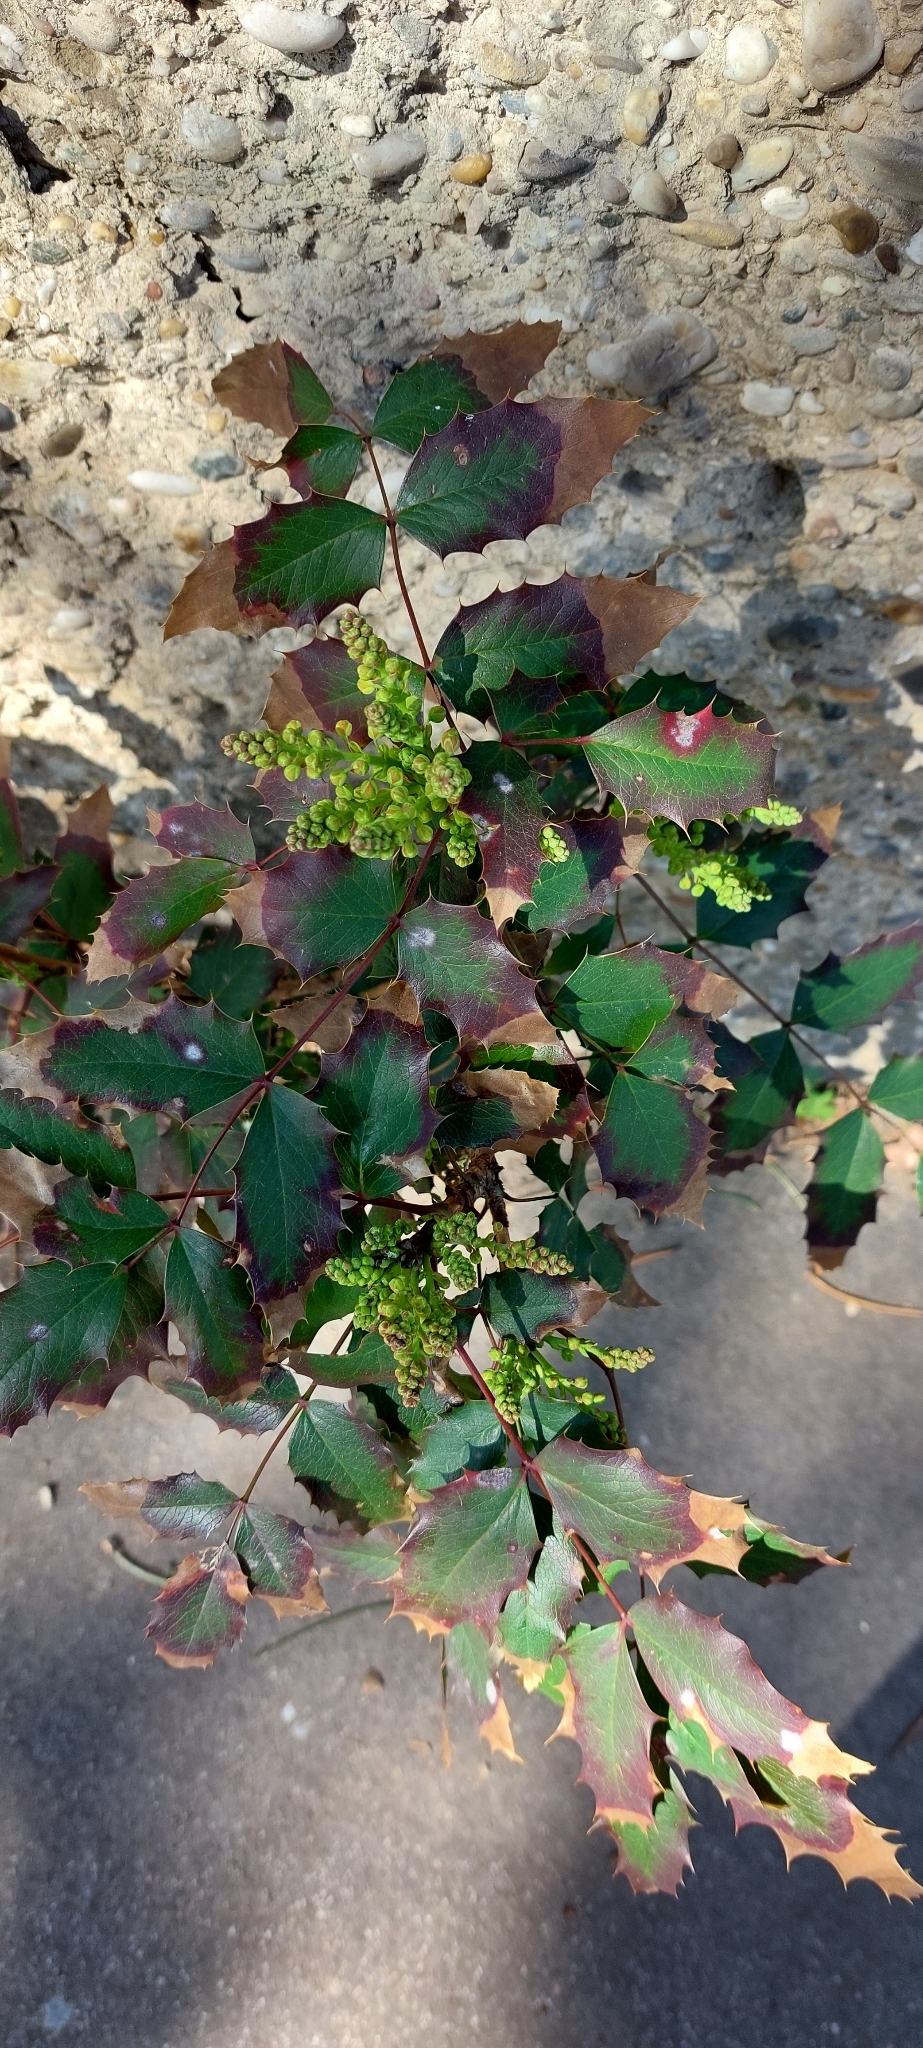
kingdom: Plantae
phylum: Tracheophyta
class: Magnoliopsida
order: Ranunculales
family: Berberidaceae
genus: Mahonia
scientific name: Mahonia aquifolium
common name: Oregon-grape
